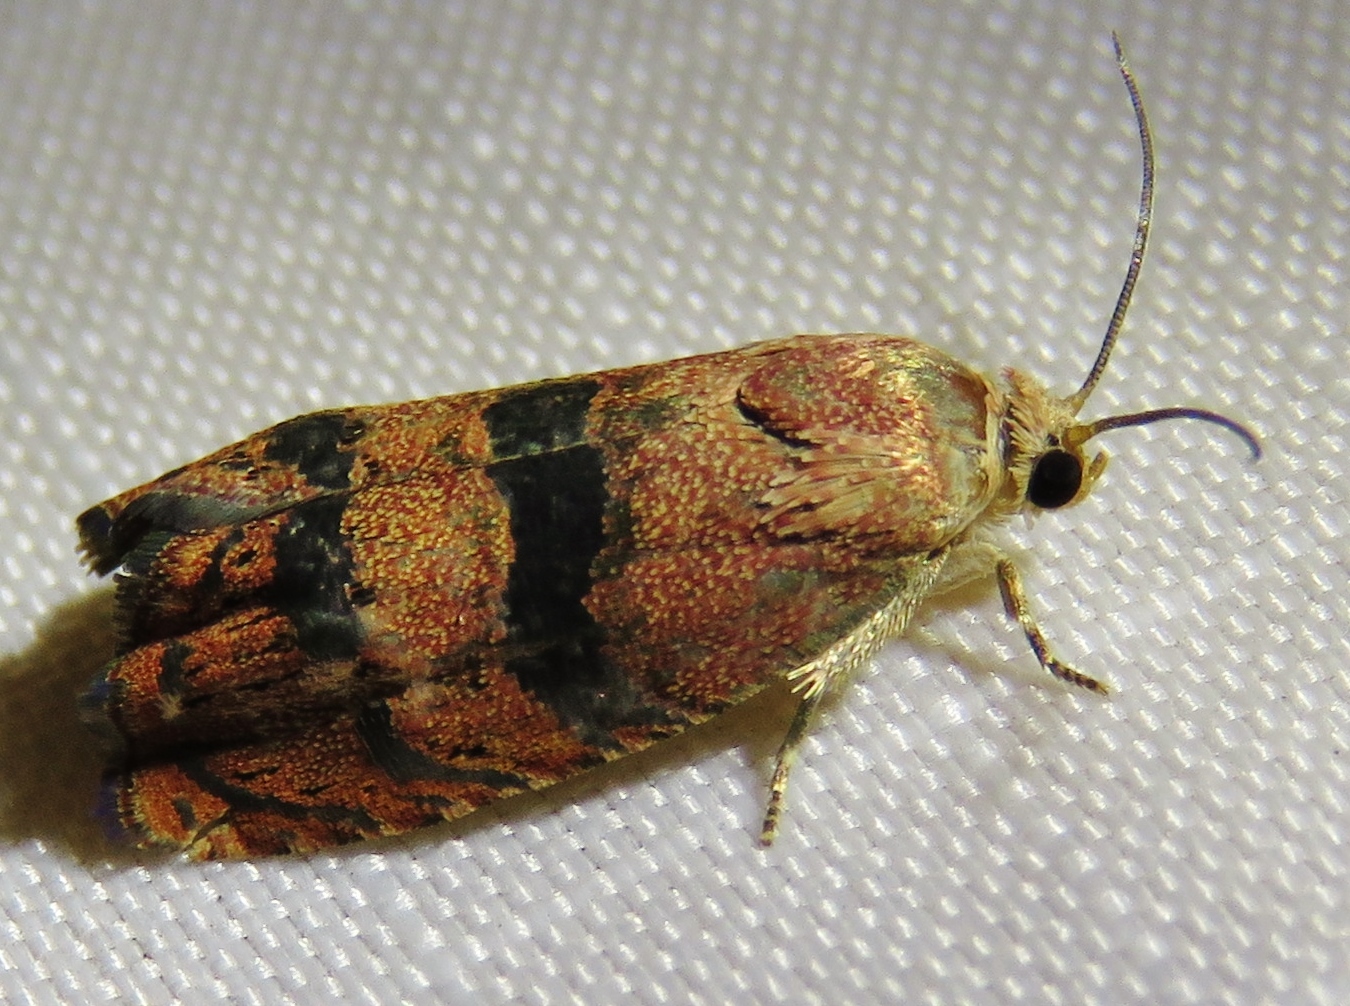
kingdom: Animalia
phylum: Arthropoda
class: Insecta
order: Lepidoptera
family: Tortricidae
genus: Cydia
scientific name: Cydia latiferreana
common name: Filbertworm moth
